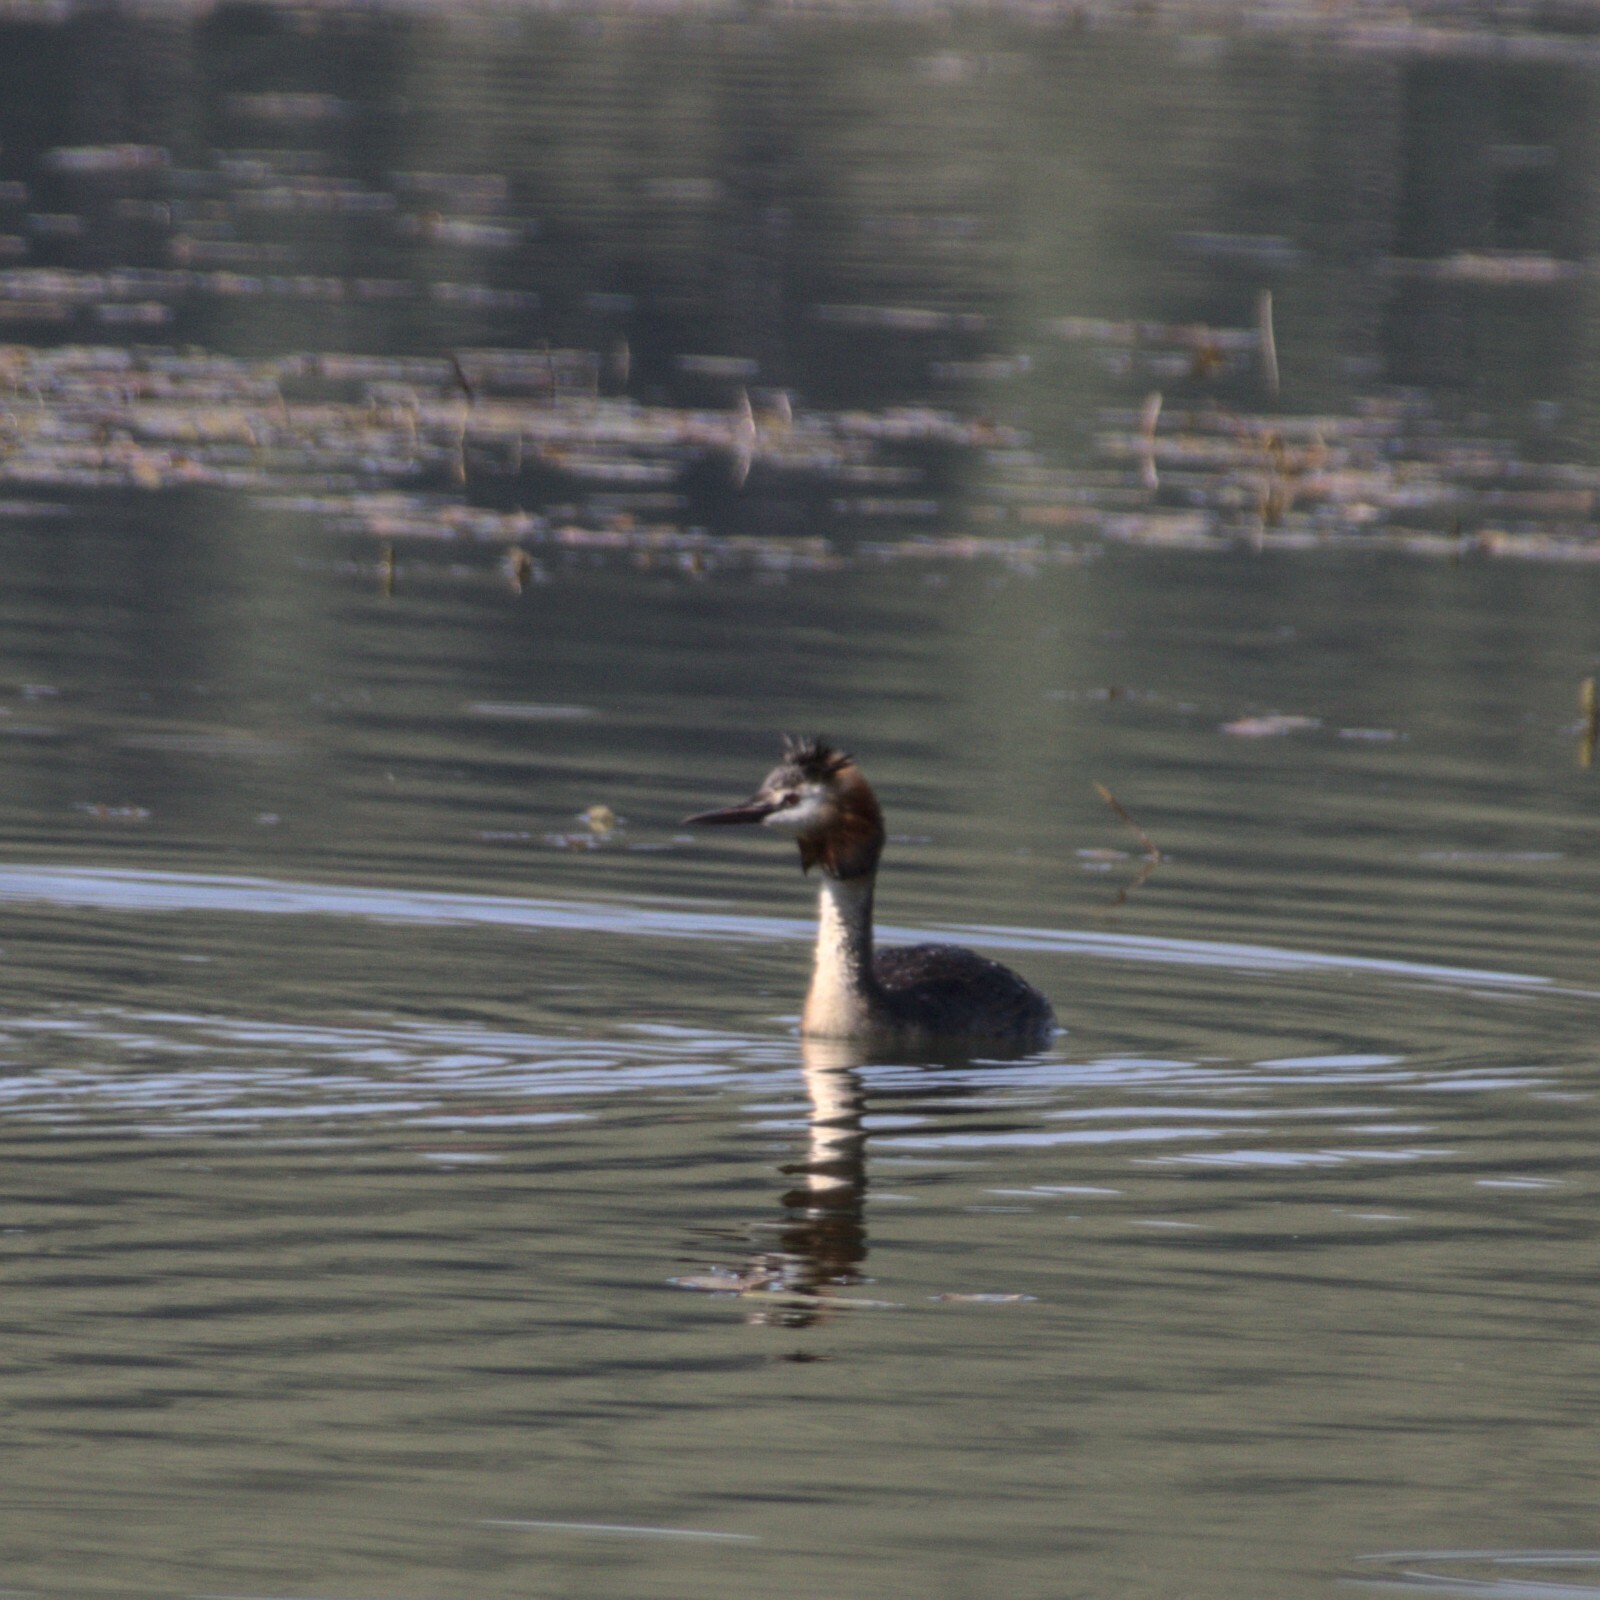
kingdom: Animalia
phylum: Chordata
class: Aves
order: Podicipediformes
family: Podicipedidae
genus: Podiceps
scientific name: Podiceps cristatus
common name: Great crested grebe
